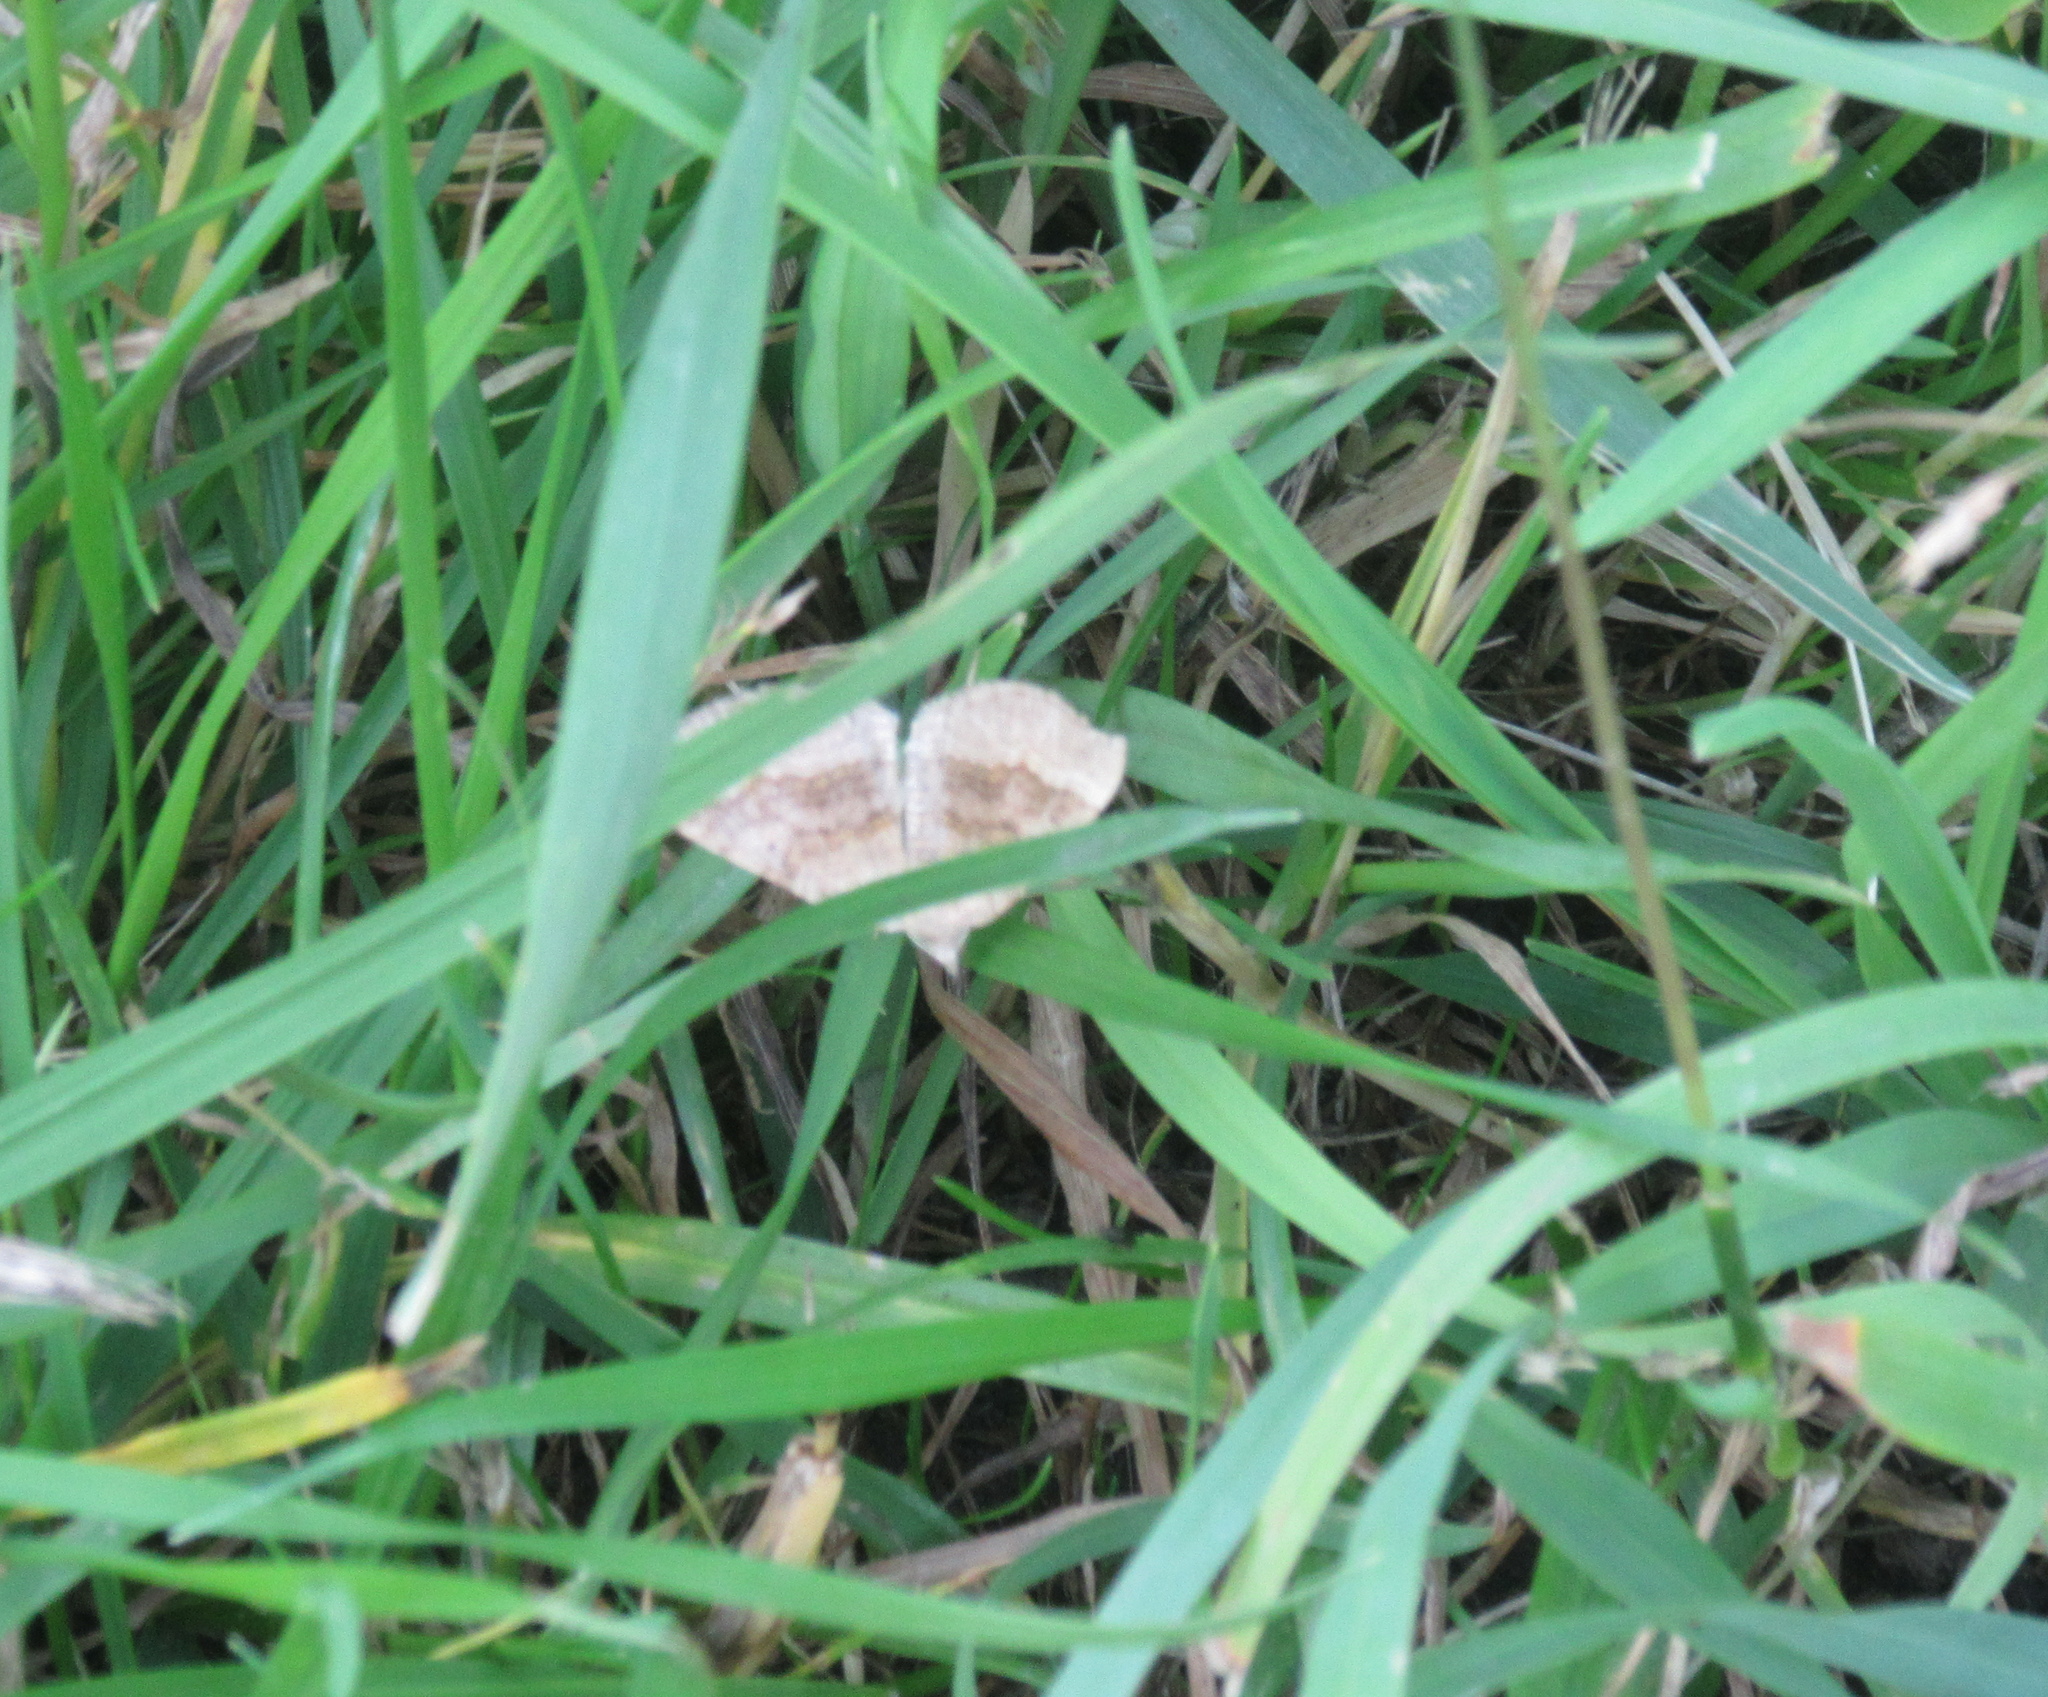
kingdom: Animalia
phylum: Arthropoda
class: Insecta
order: Lepidoptera
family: Geometridae
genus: Scotopteryx
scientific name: Scotopteryx chenopodiata
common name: Shaded broad-bar
